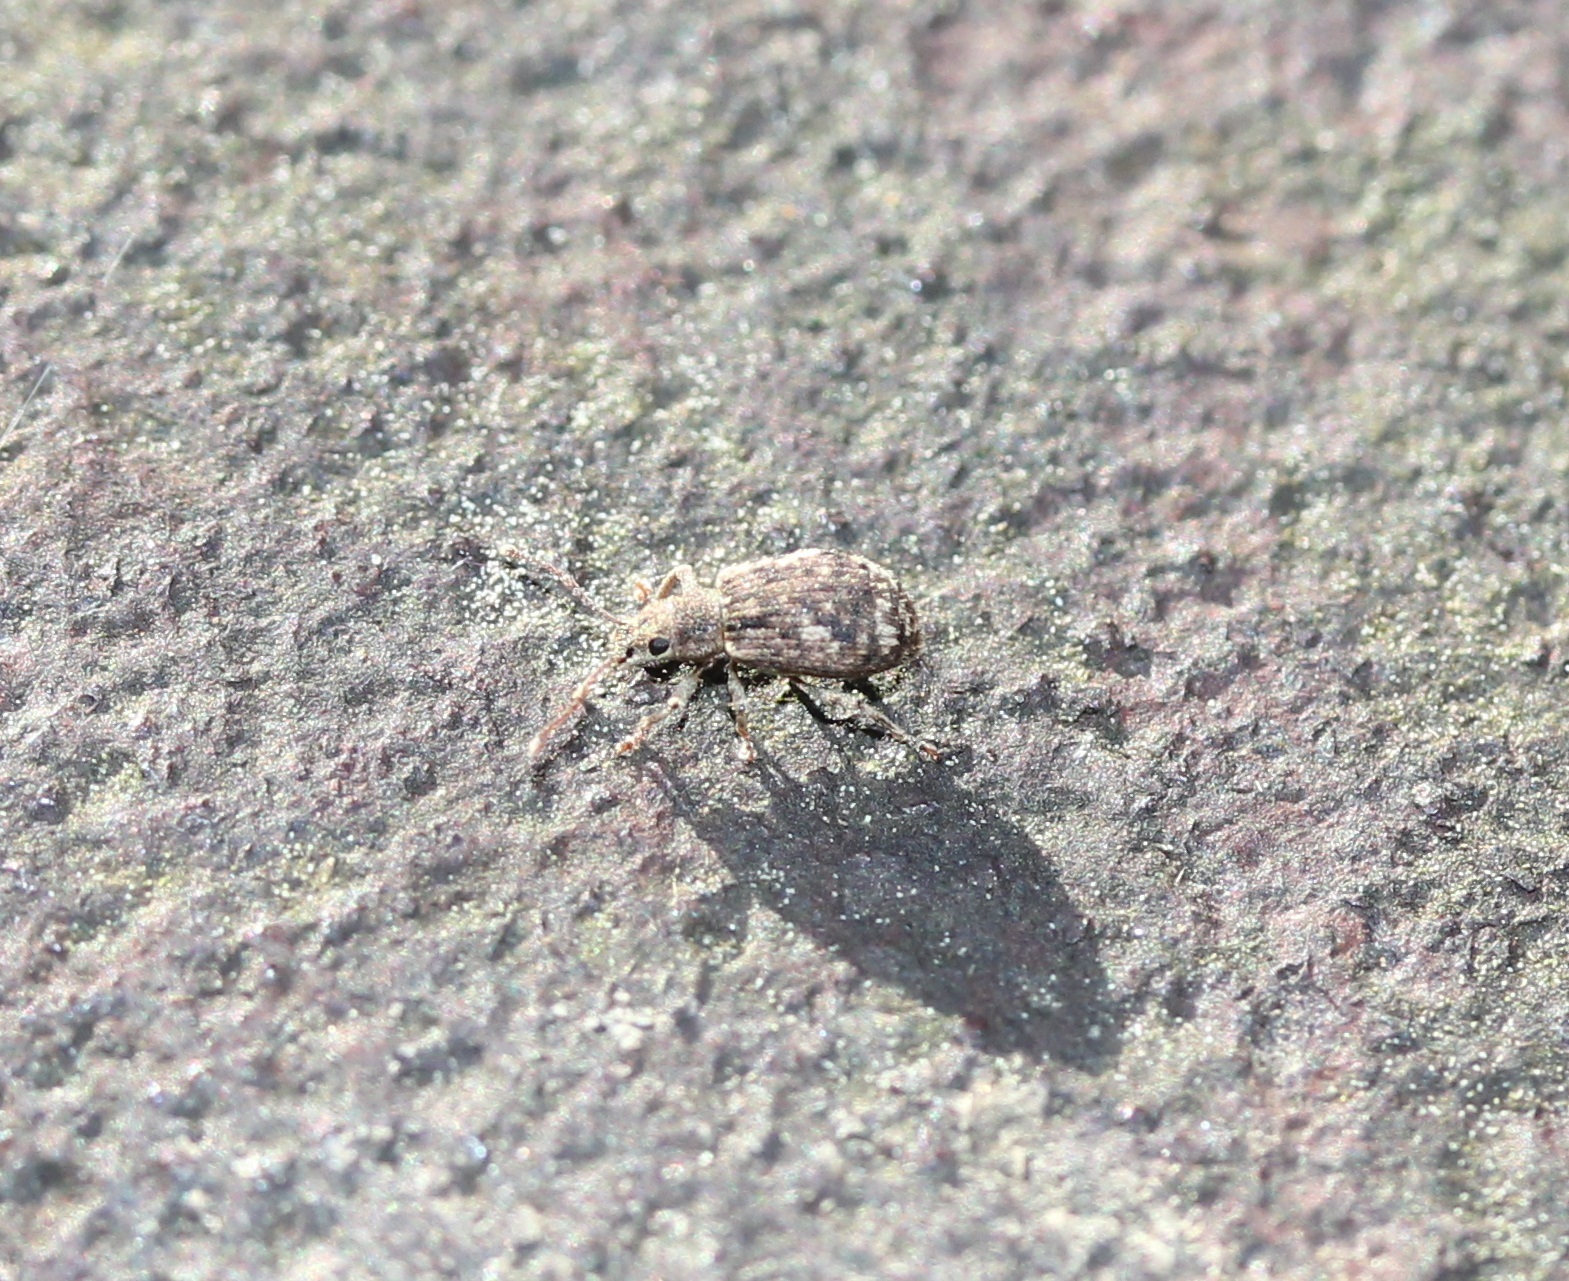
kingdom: Animalia
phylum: Arthropoda
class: Insecta
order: Coleoptera
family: Curculionidae
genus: Pseudoedophrys
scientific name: Pseudoedophrys hilleri
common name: Weevil
